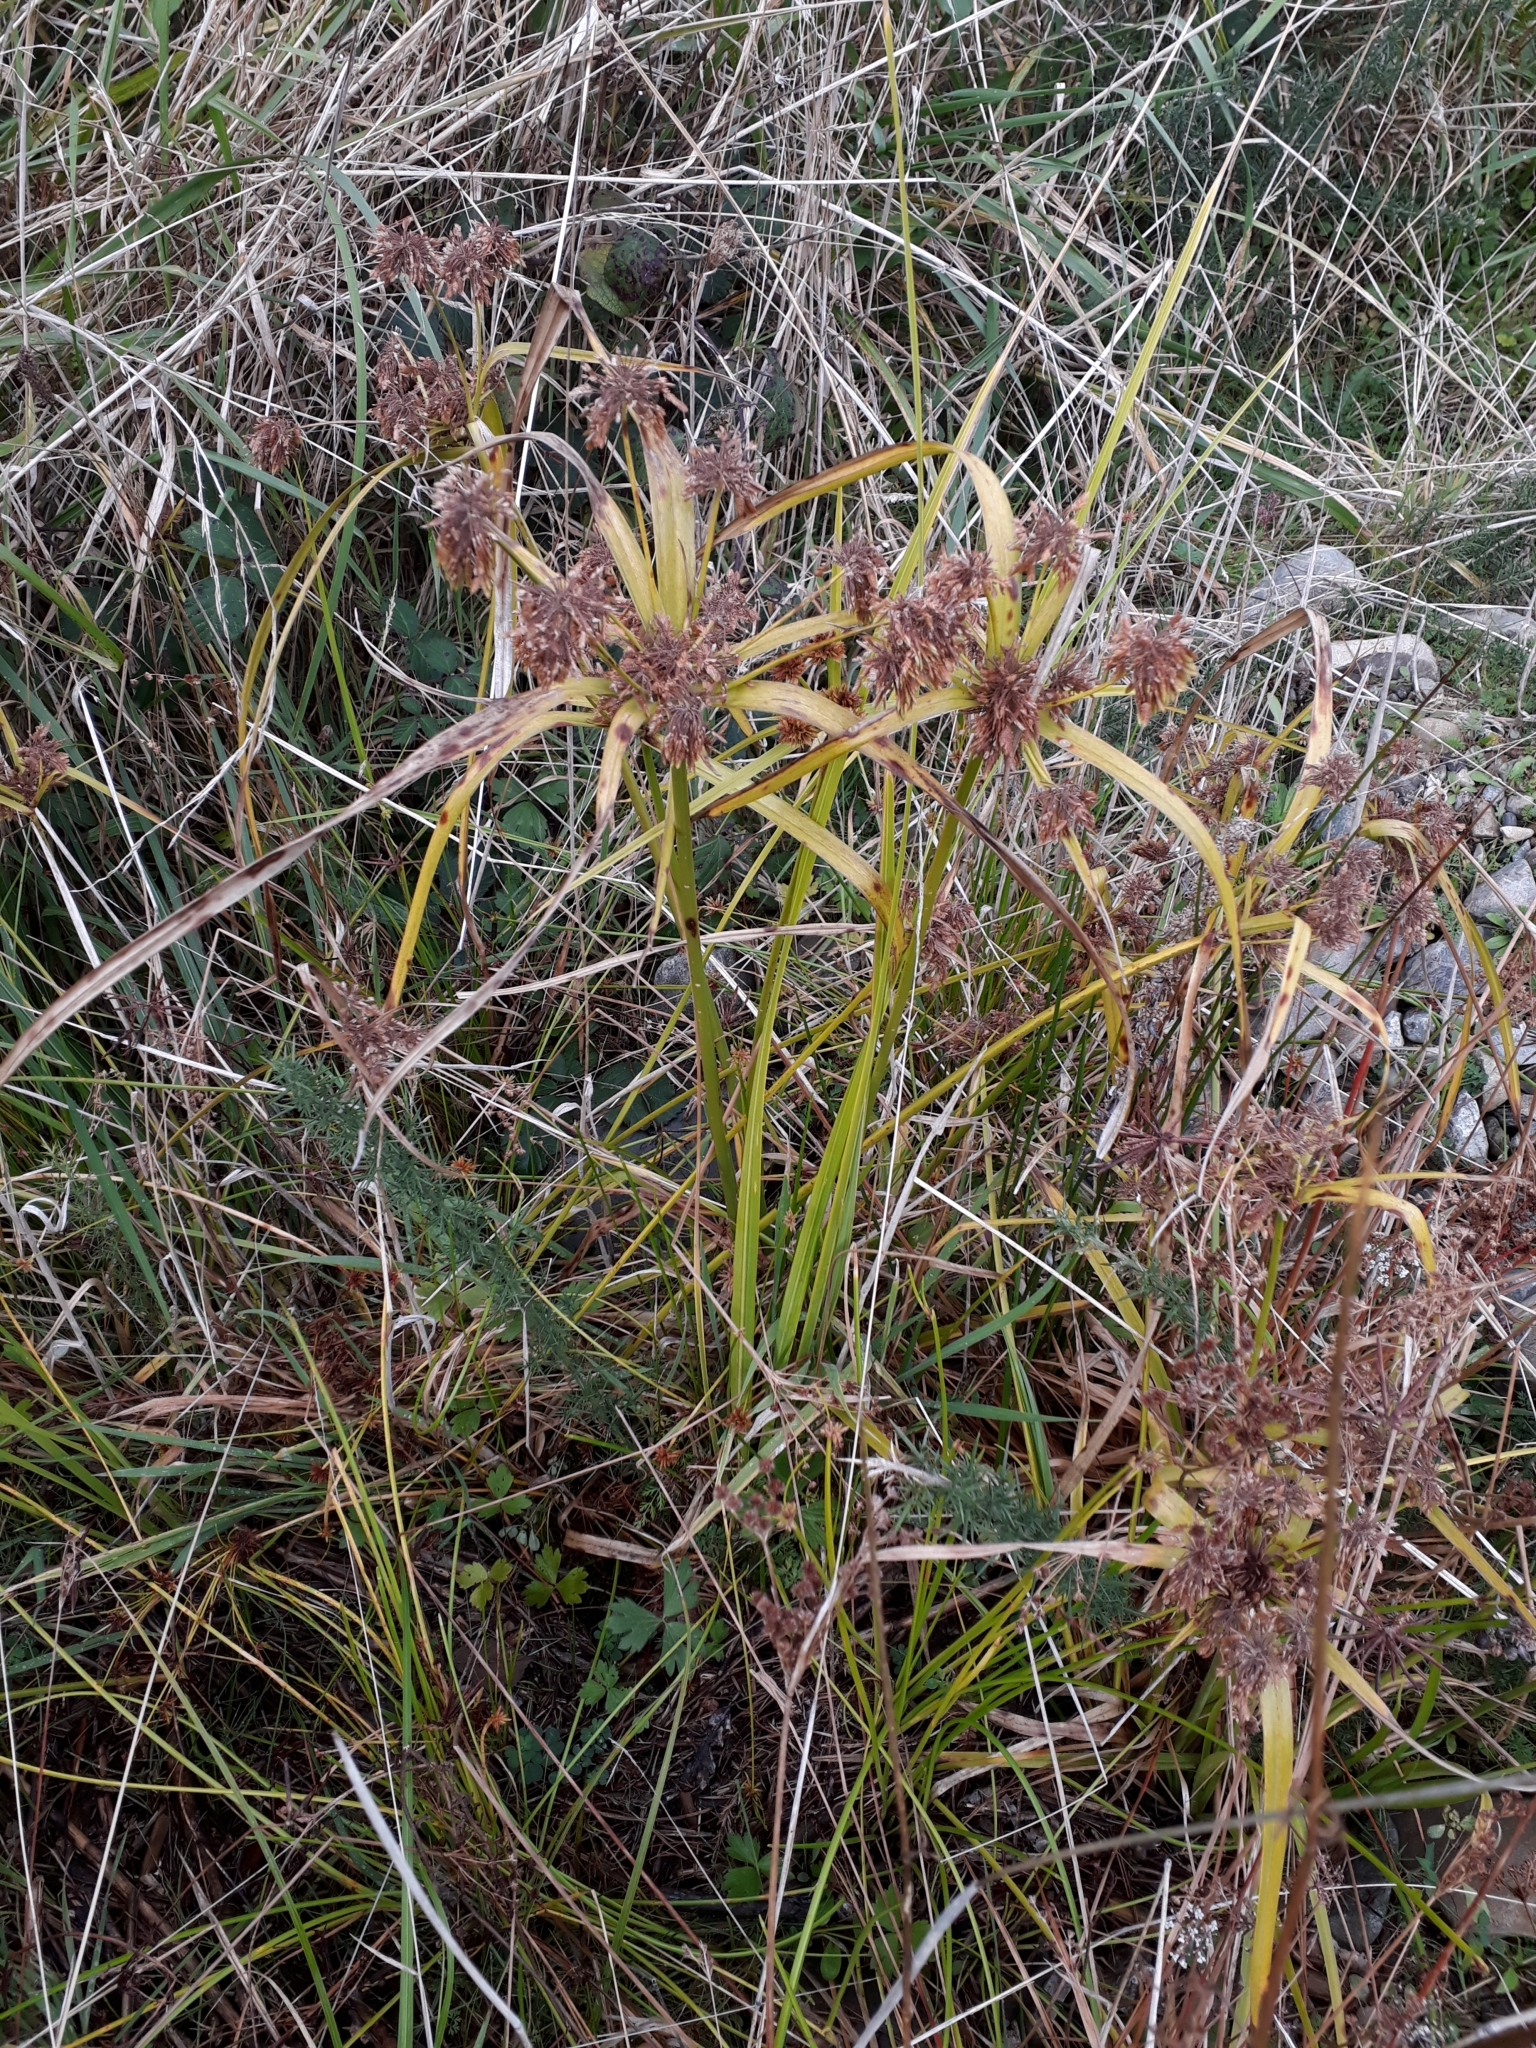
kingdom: Plantae
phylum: Tracheophyta
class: Liliopsida
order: Poales
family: Cyperaceae
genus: Cyperus
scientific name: Cyperus eragrostis
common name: Tall flatsedge
